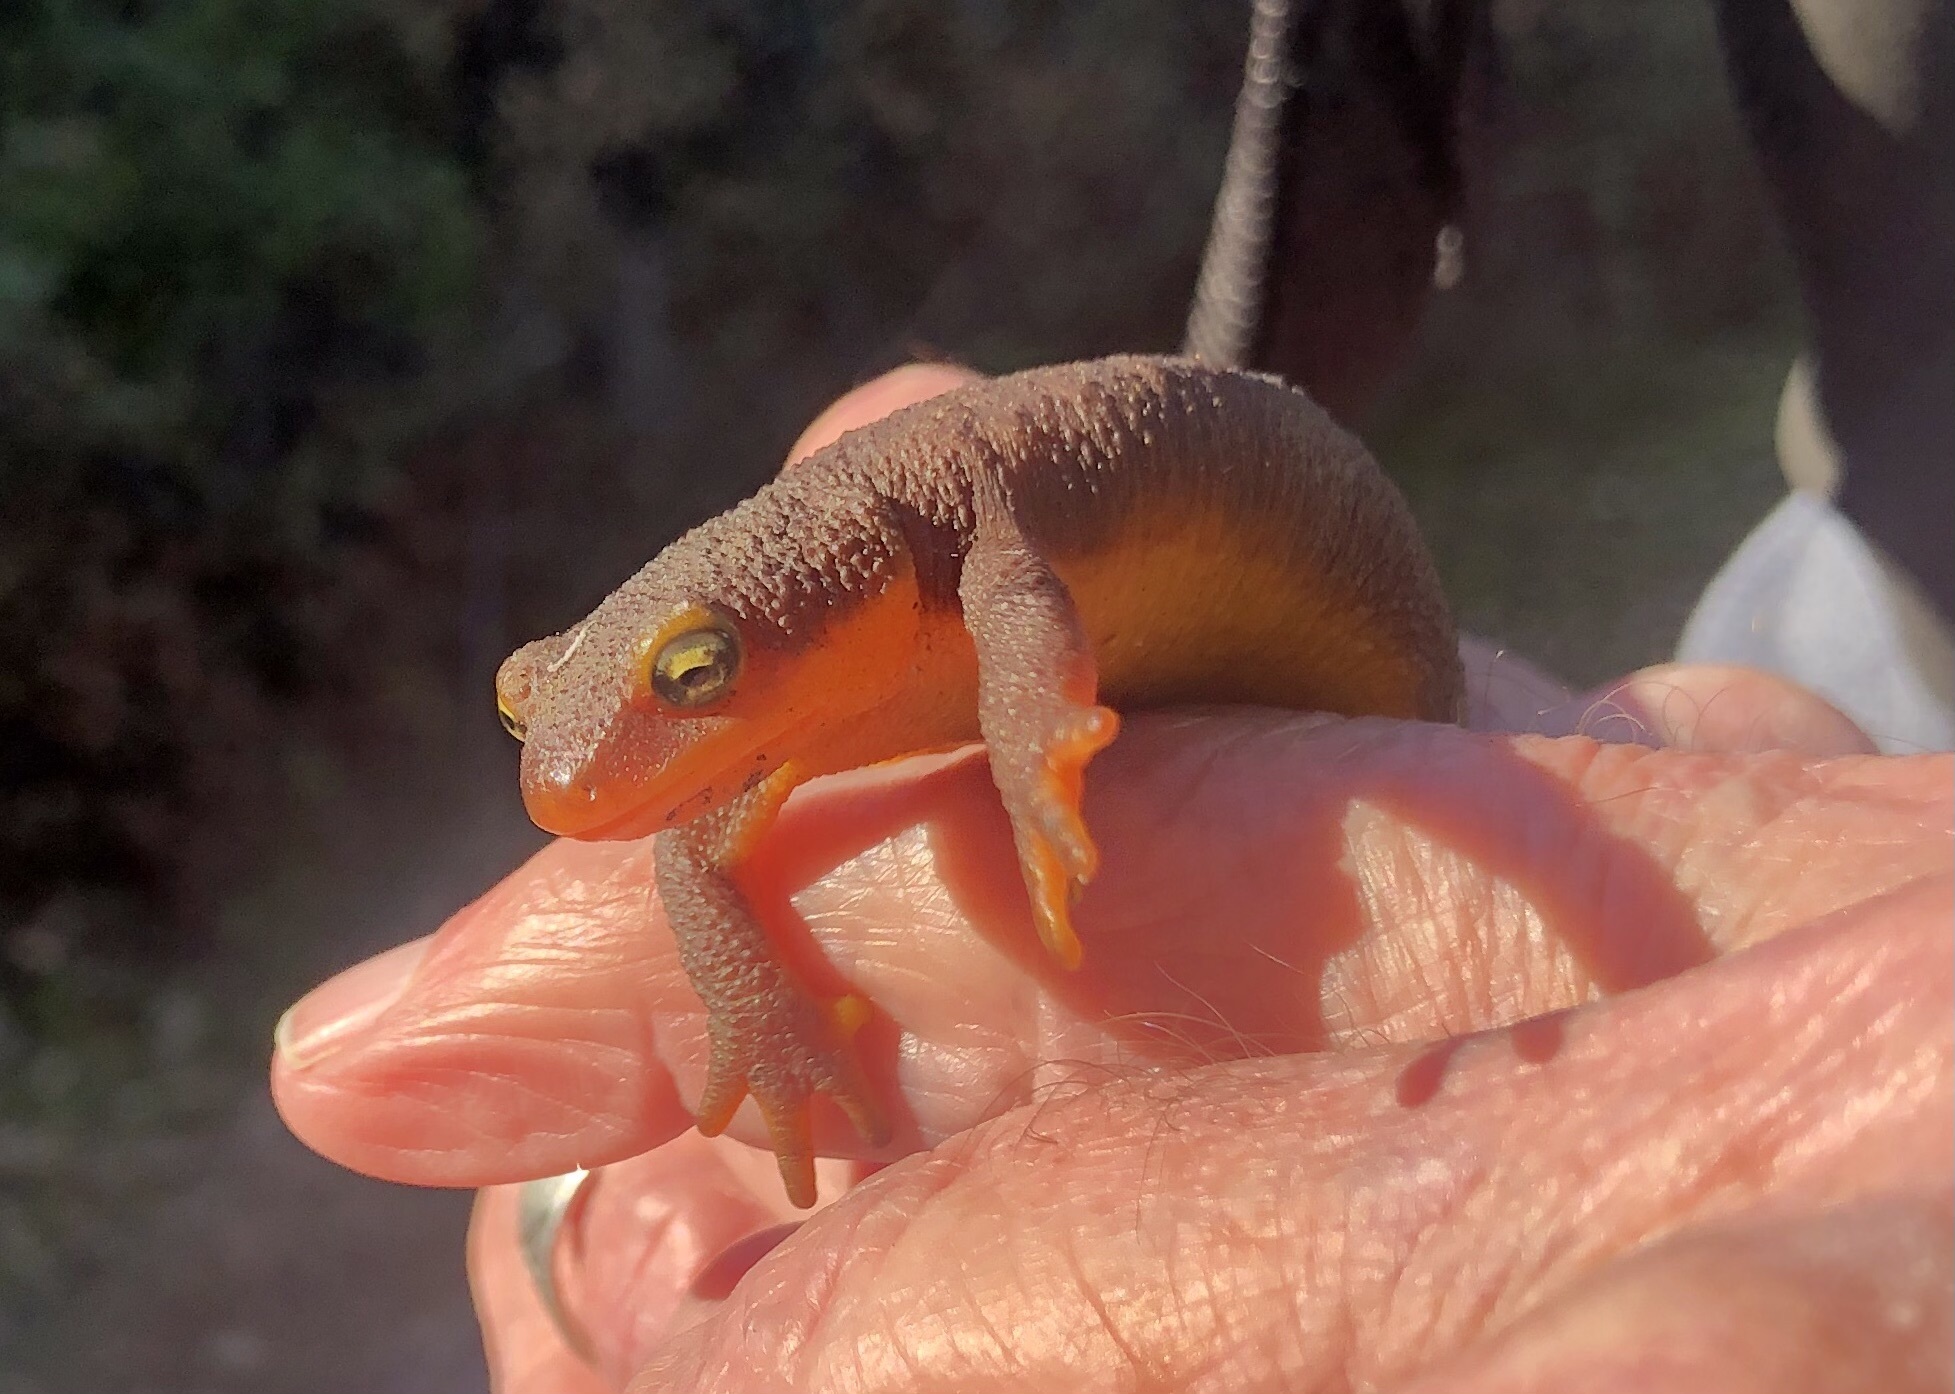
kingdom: Animalia
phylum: Chordata
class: Amphibia
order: Caudata
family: Salamandridae
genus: Taricha
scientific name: Taricha torosa
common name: California newt
